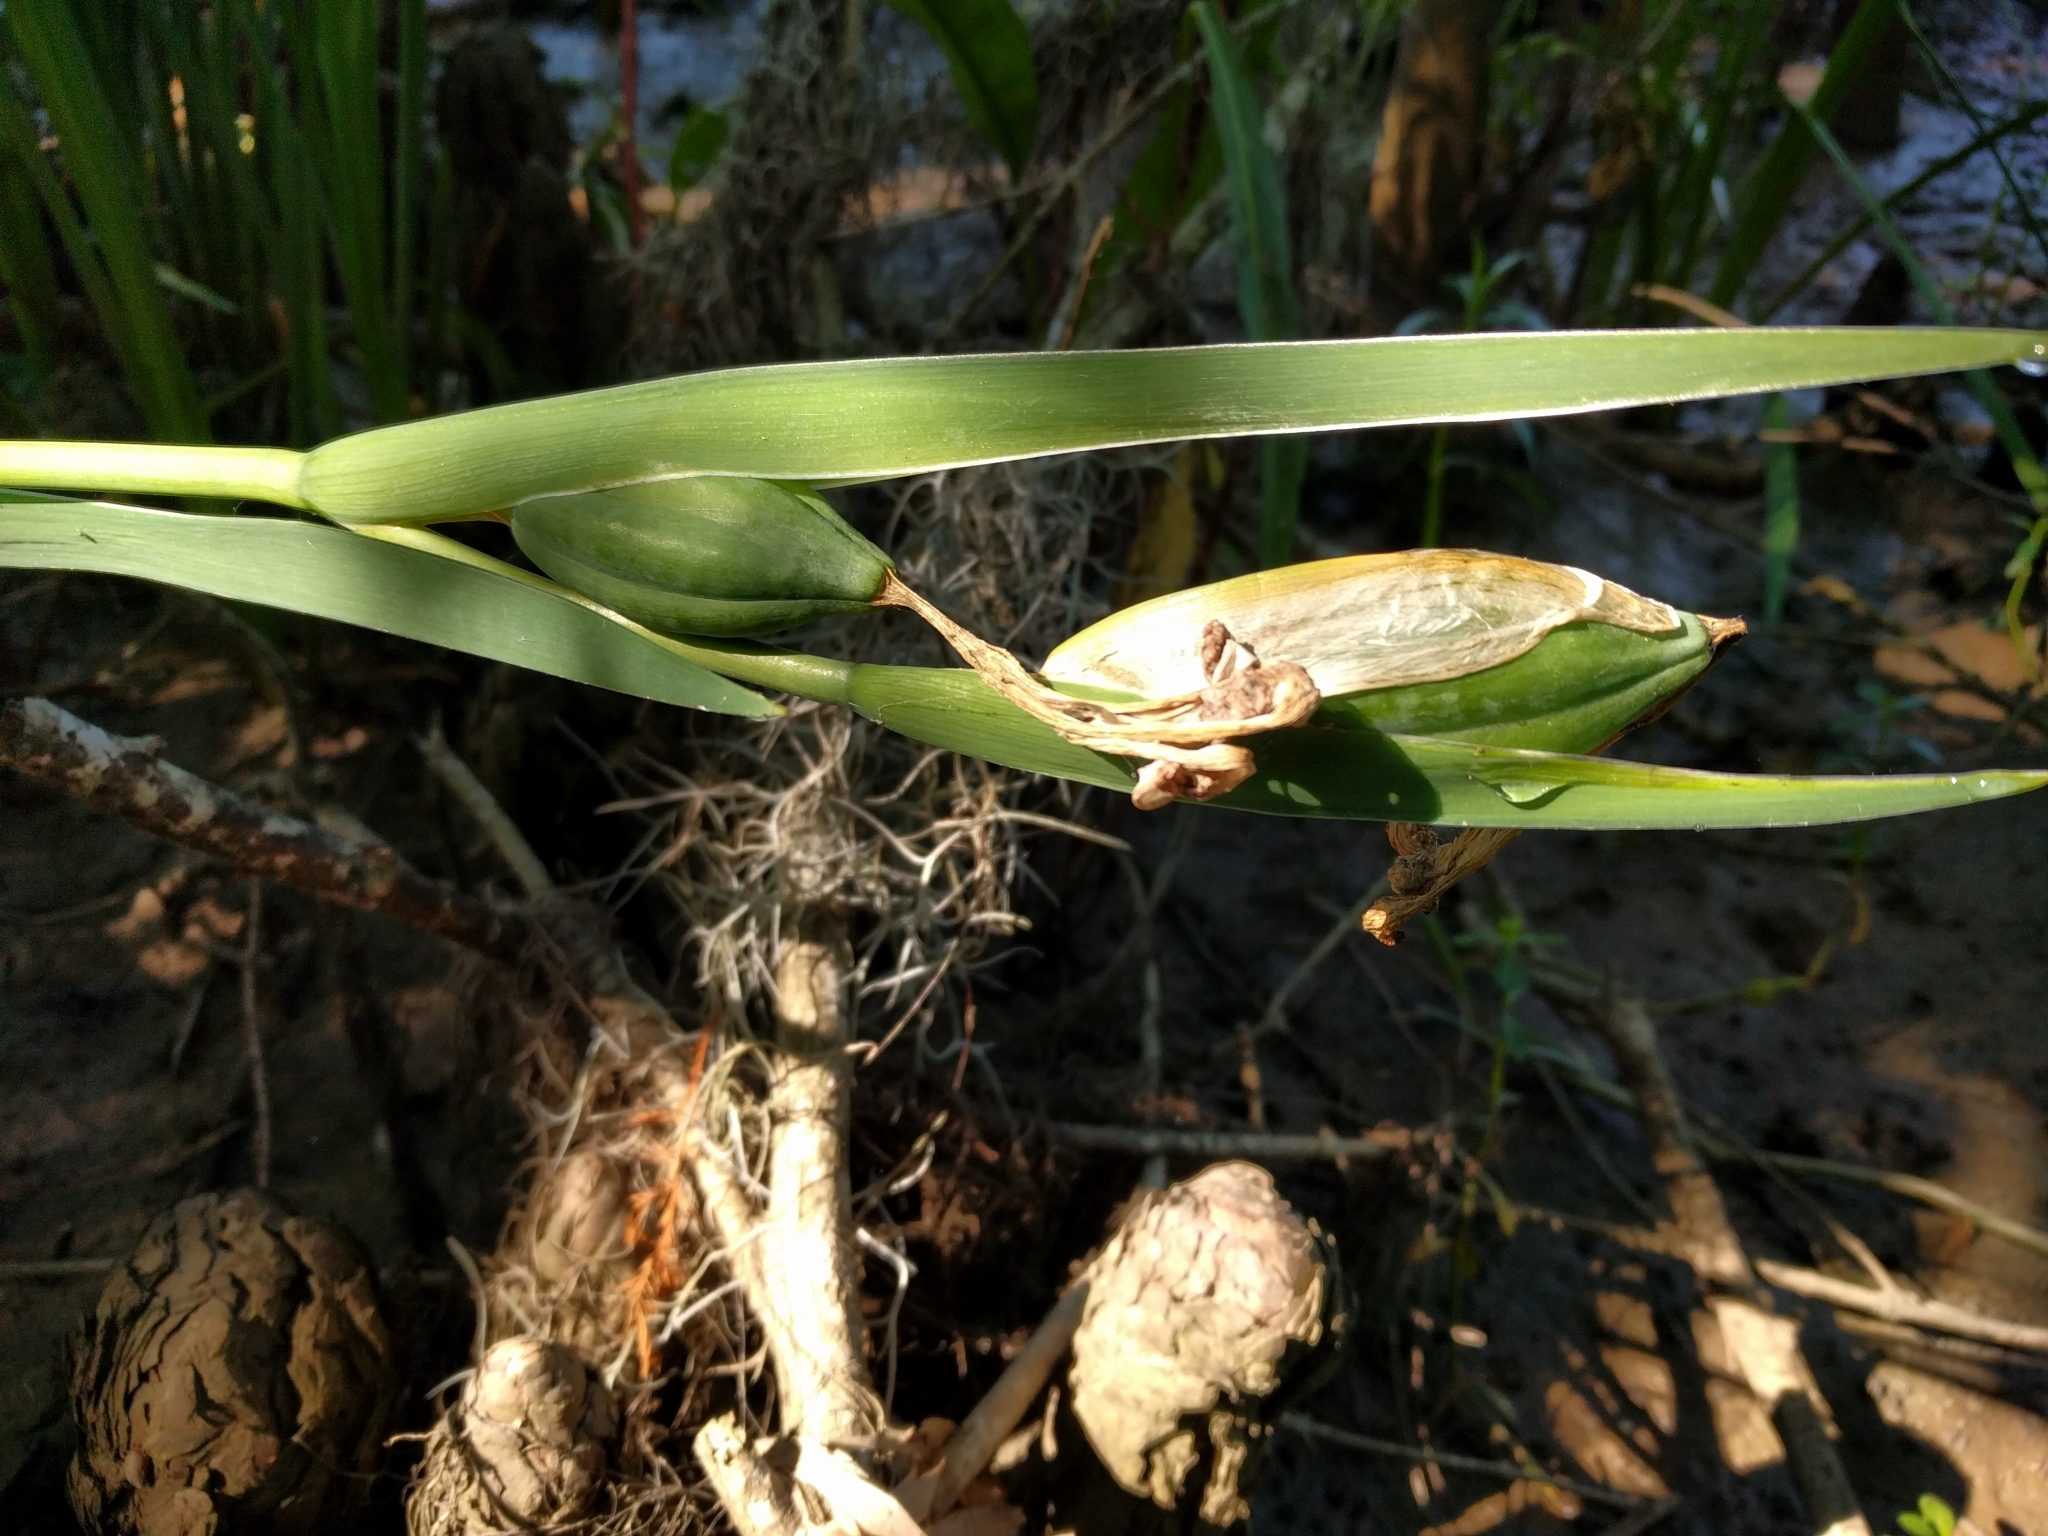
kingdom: Plantae
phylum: Tracheophyta
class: Liliopsida
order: Asparagales
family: Iridaceae
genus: Iris
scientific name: Iris giganticaerulea
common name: Giant blue iris
